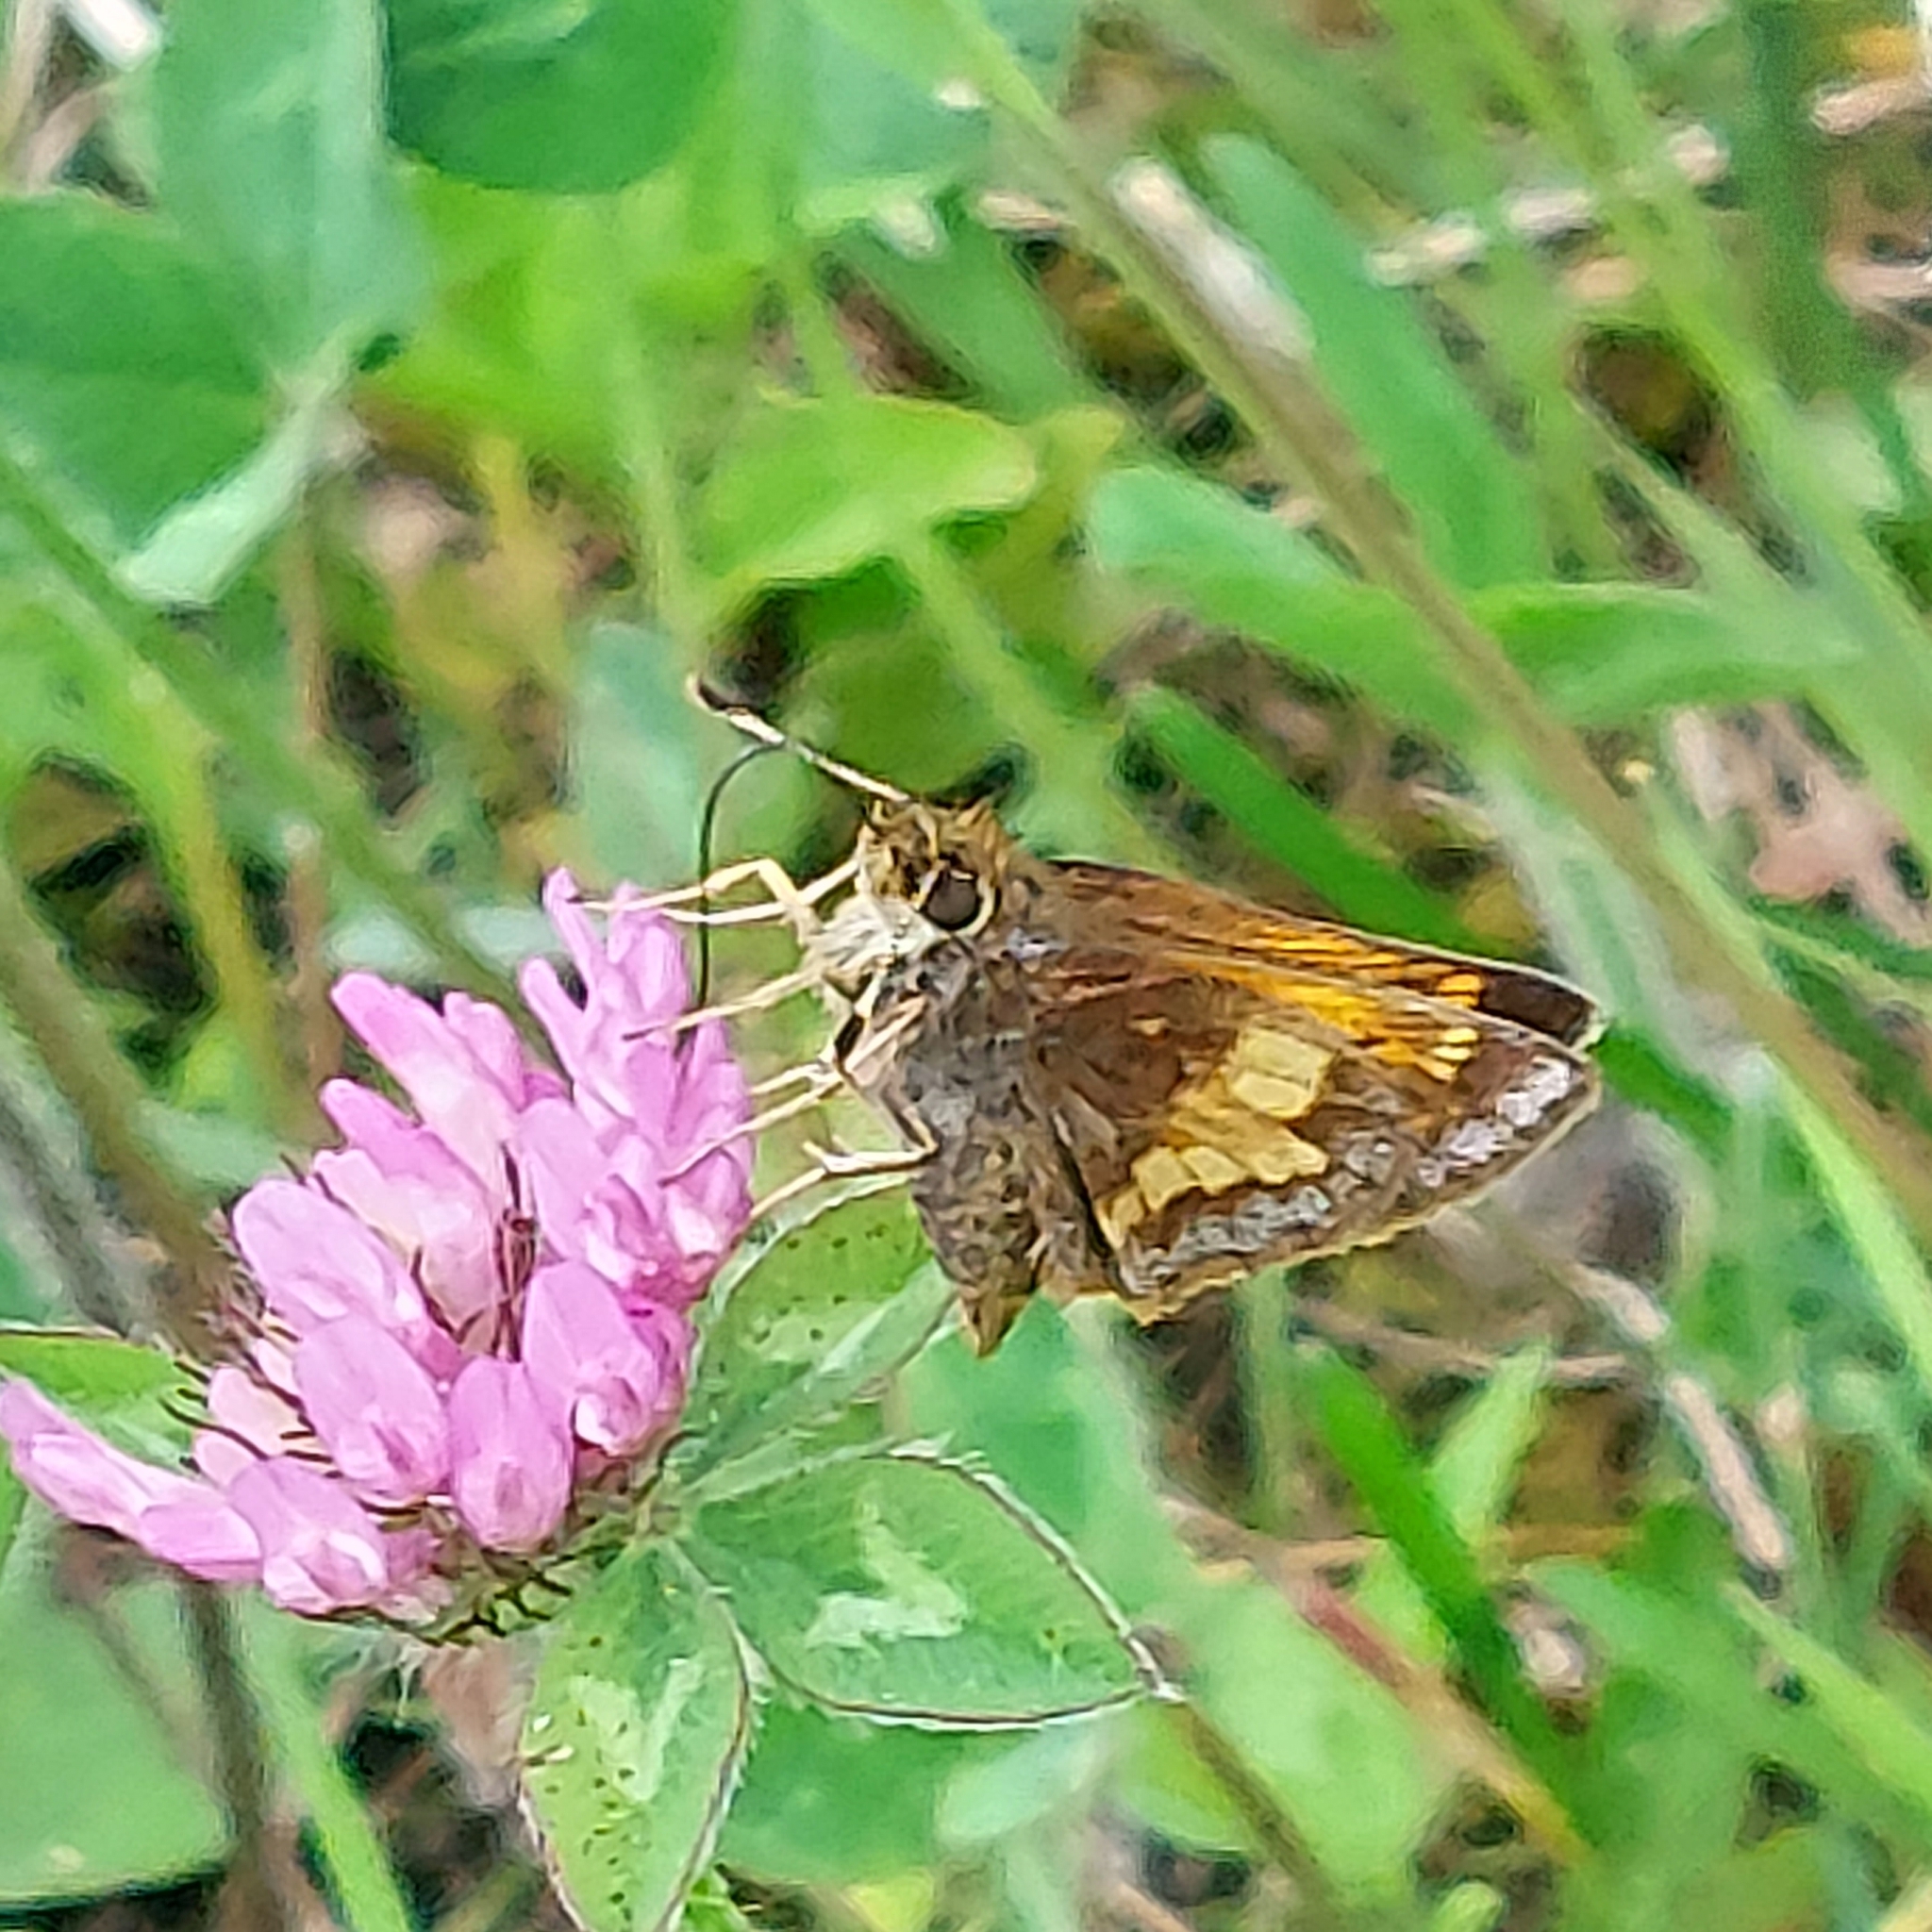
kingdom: Animalia
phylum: Arthropoda
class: Insecta
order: Lepidoptera
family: Hesperiidae
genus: Lon
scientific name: Lon hobomok
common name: Hobomok skipper
